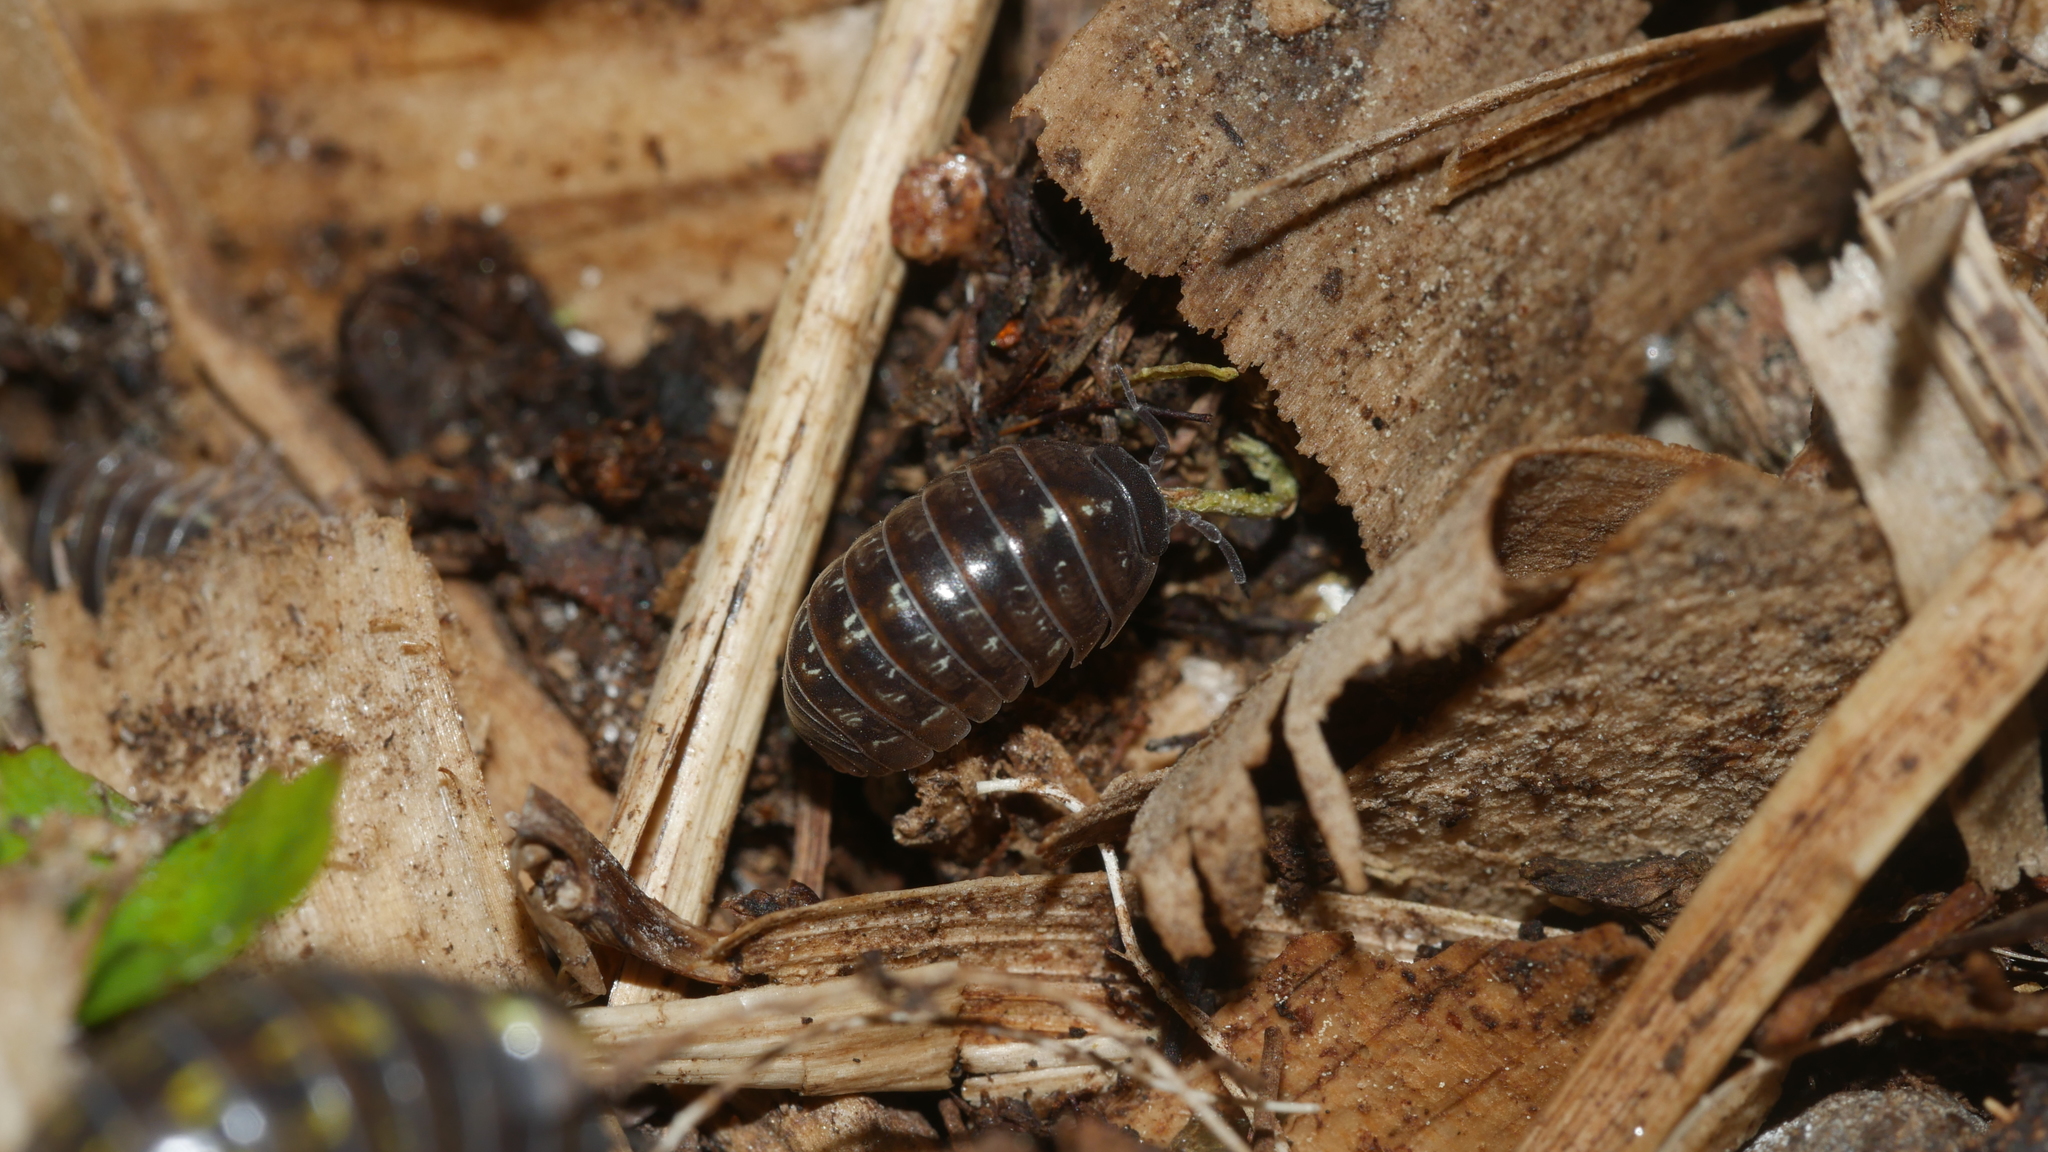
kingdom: Animalia
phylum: Arthropoda
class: Malacostraca
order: Isopoda
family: Armadillidiidae
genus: Armadillidium
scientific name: Armadillidium vulgare
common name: Common pill woodlouse
